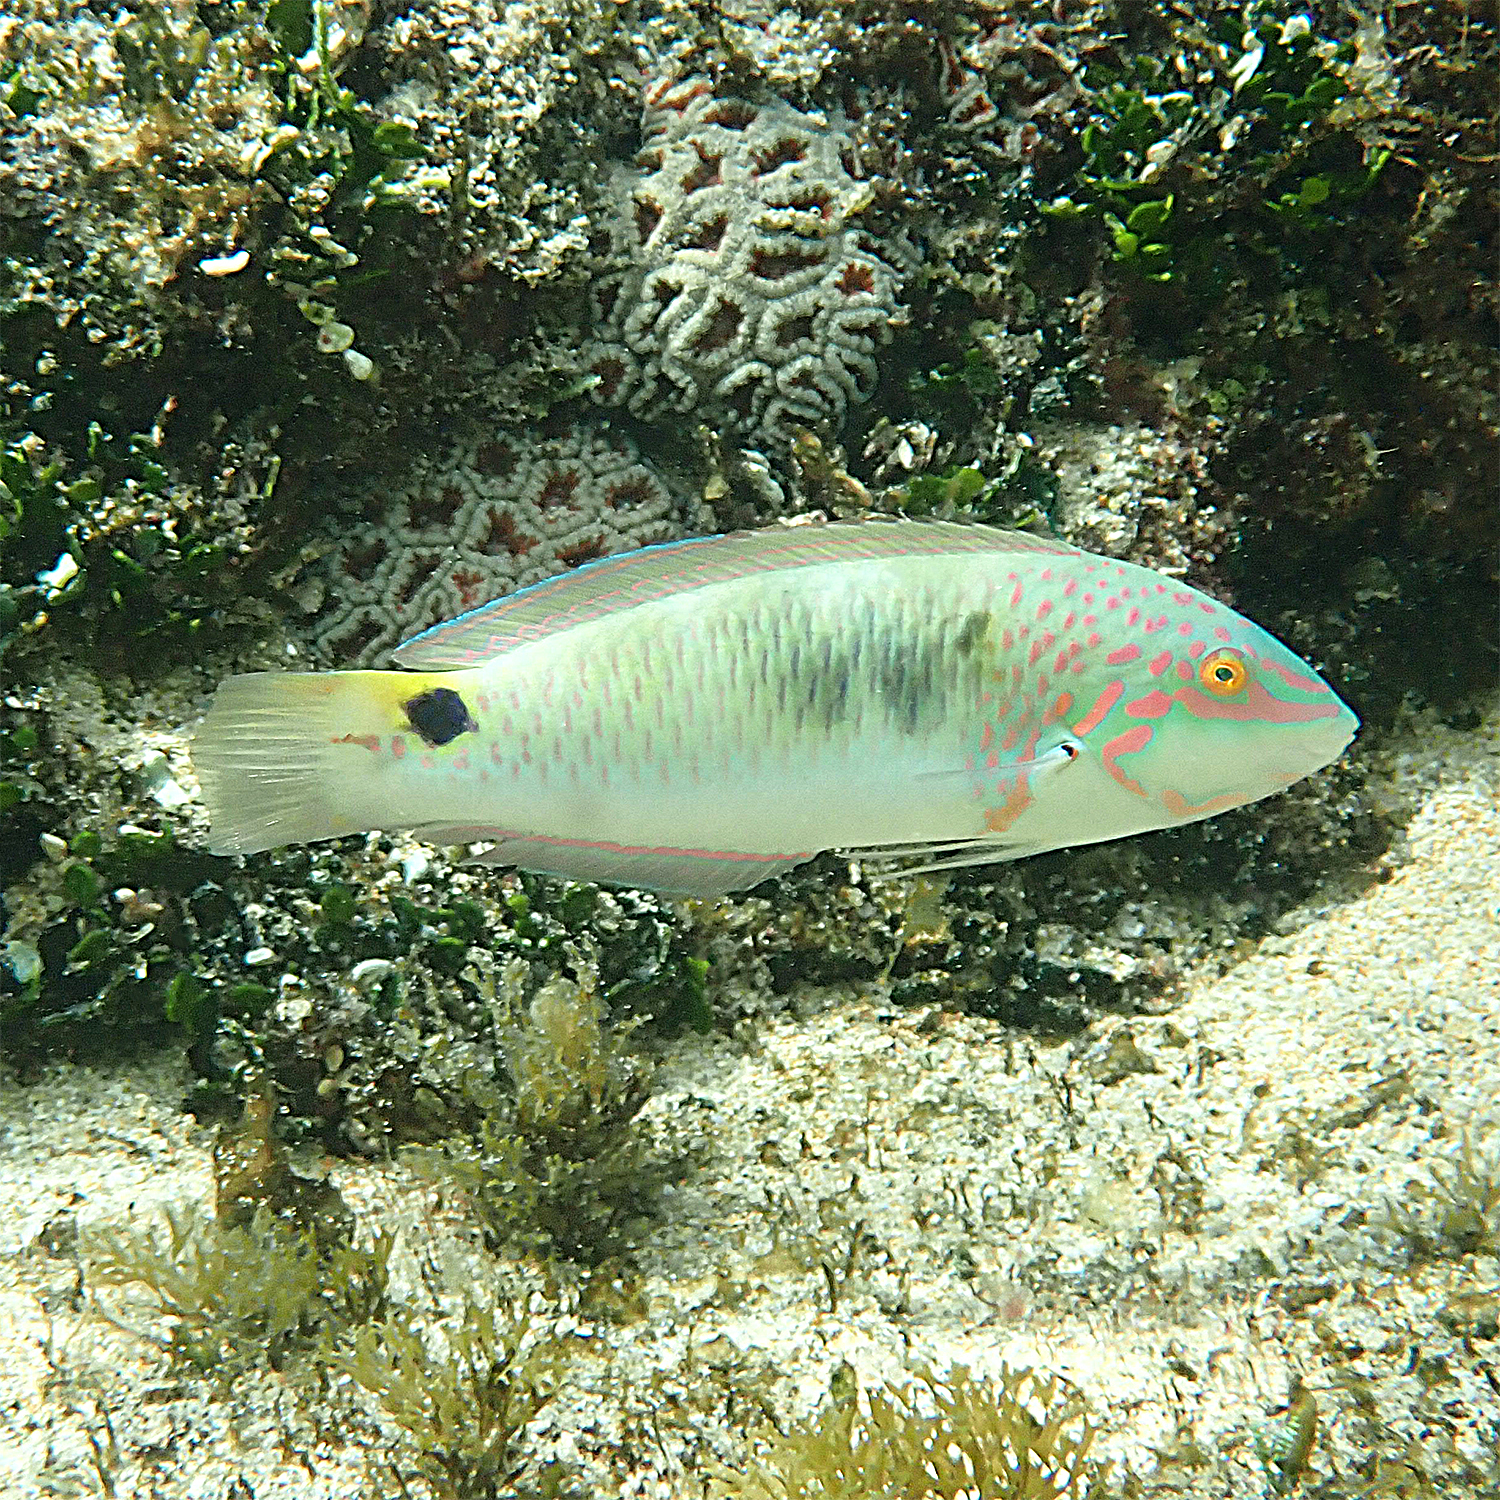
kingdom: Animalia
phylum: Chordata
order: Perciformes
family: Labridae
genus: Halichoeres
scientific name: Halichoeres trimaculatus
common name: Three-spot wrasse
